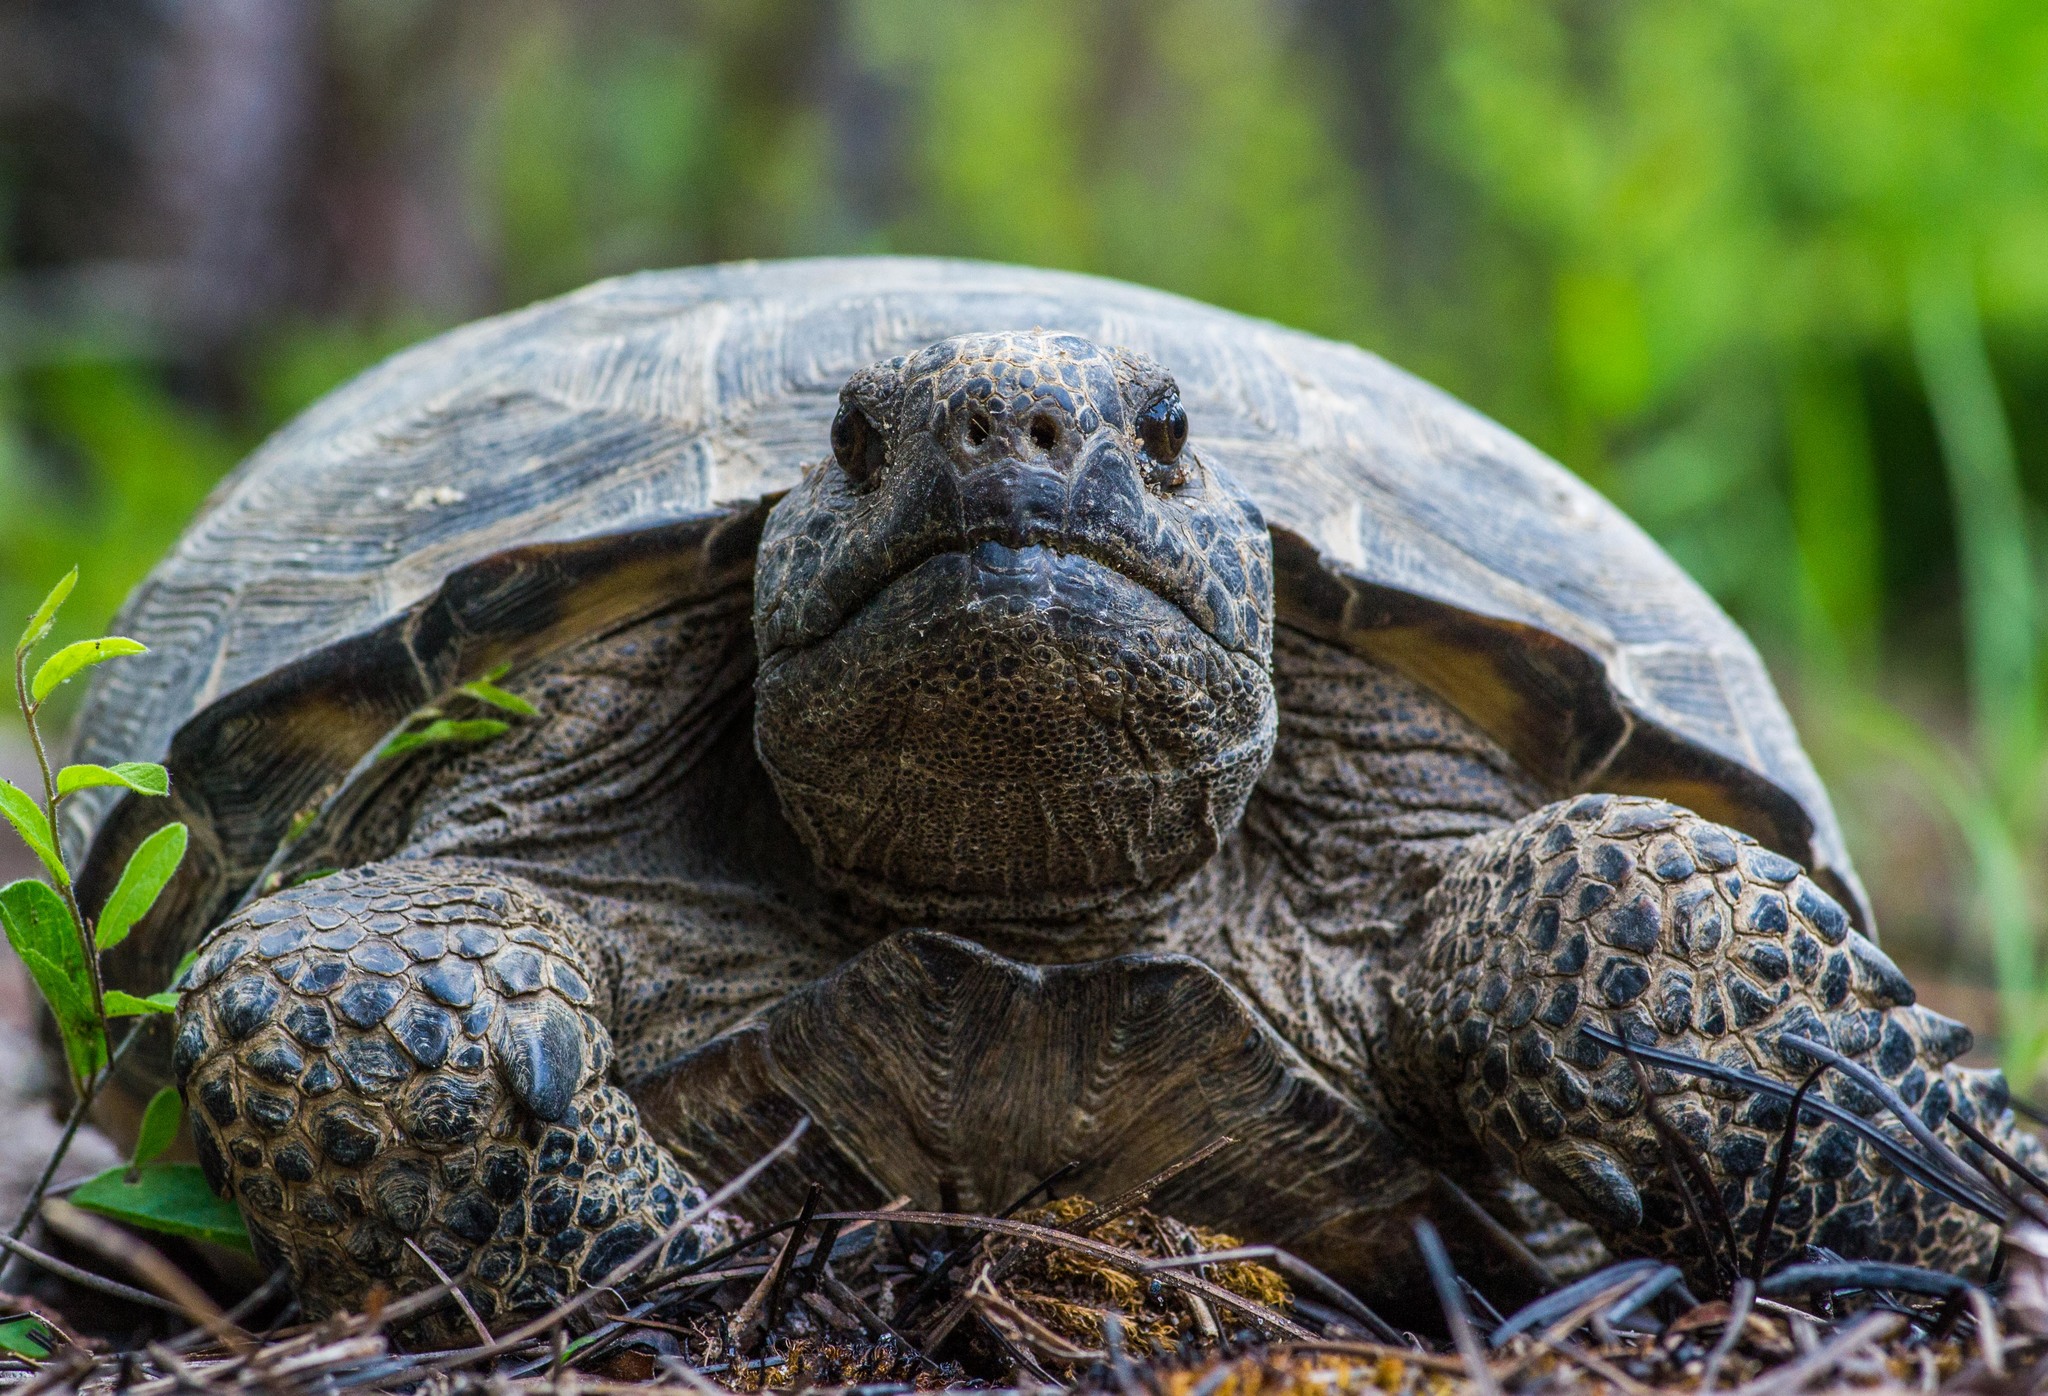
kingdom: Animalia
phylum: Chordata
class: Testudines
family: Testudinidae
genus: Gopherus
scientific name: Gopherus polyphemus
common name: Florida gopher tortoise
